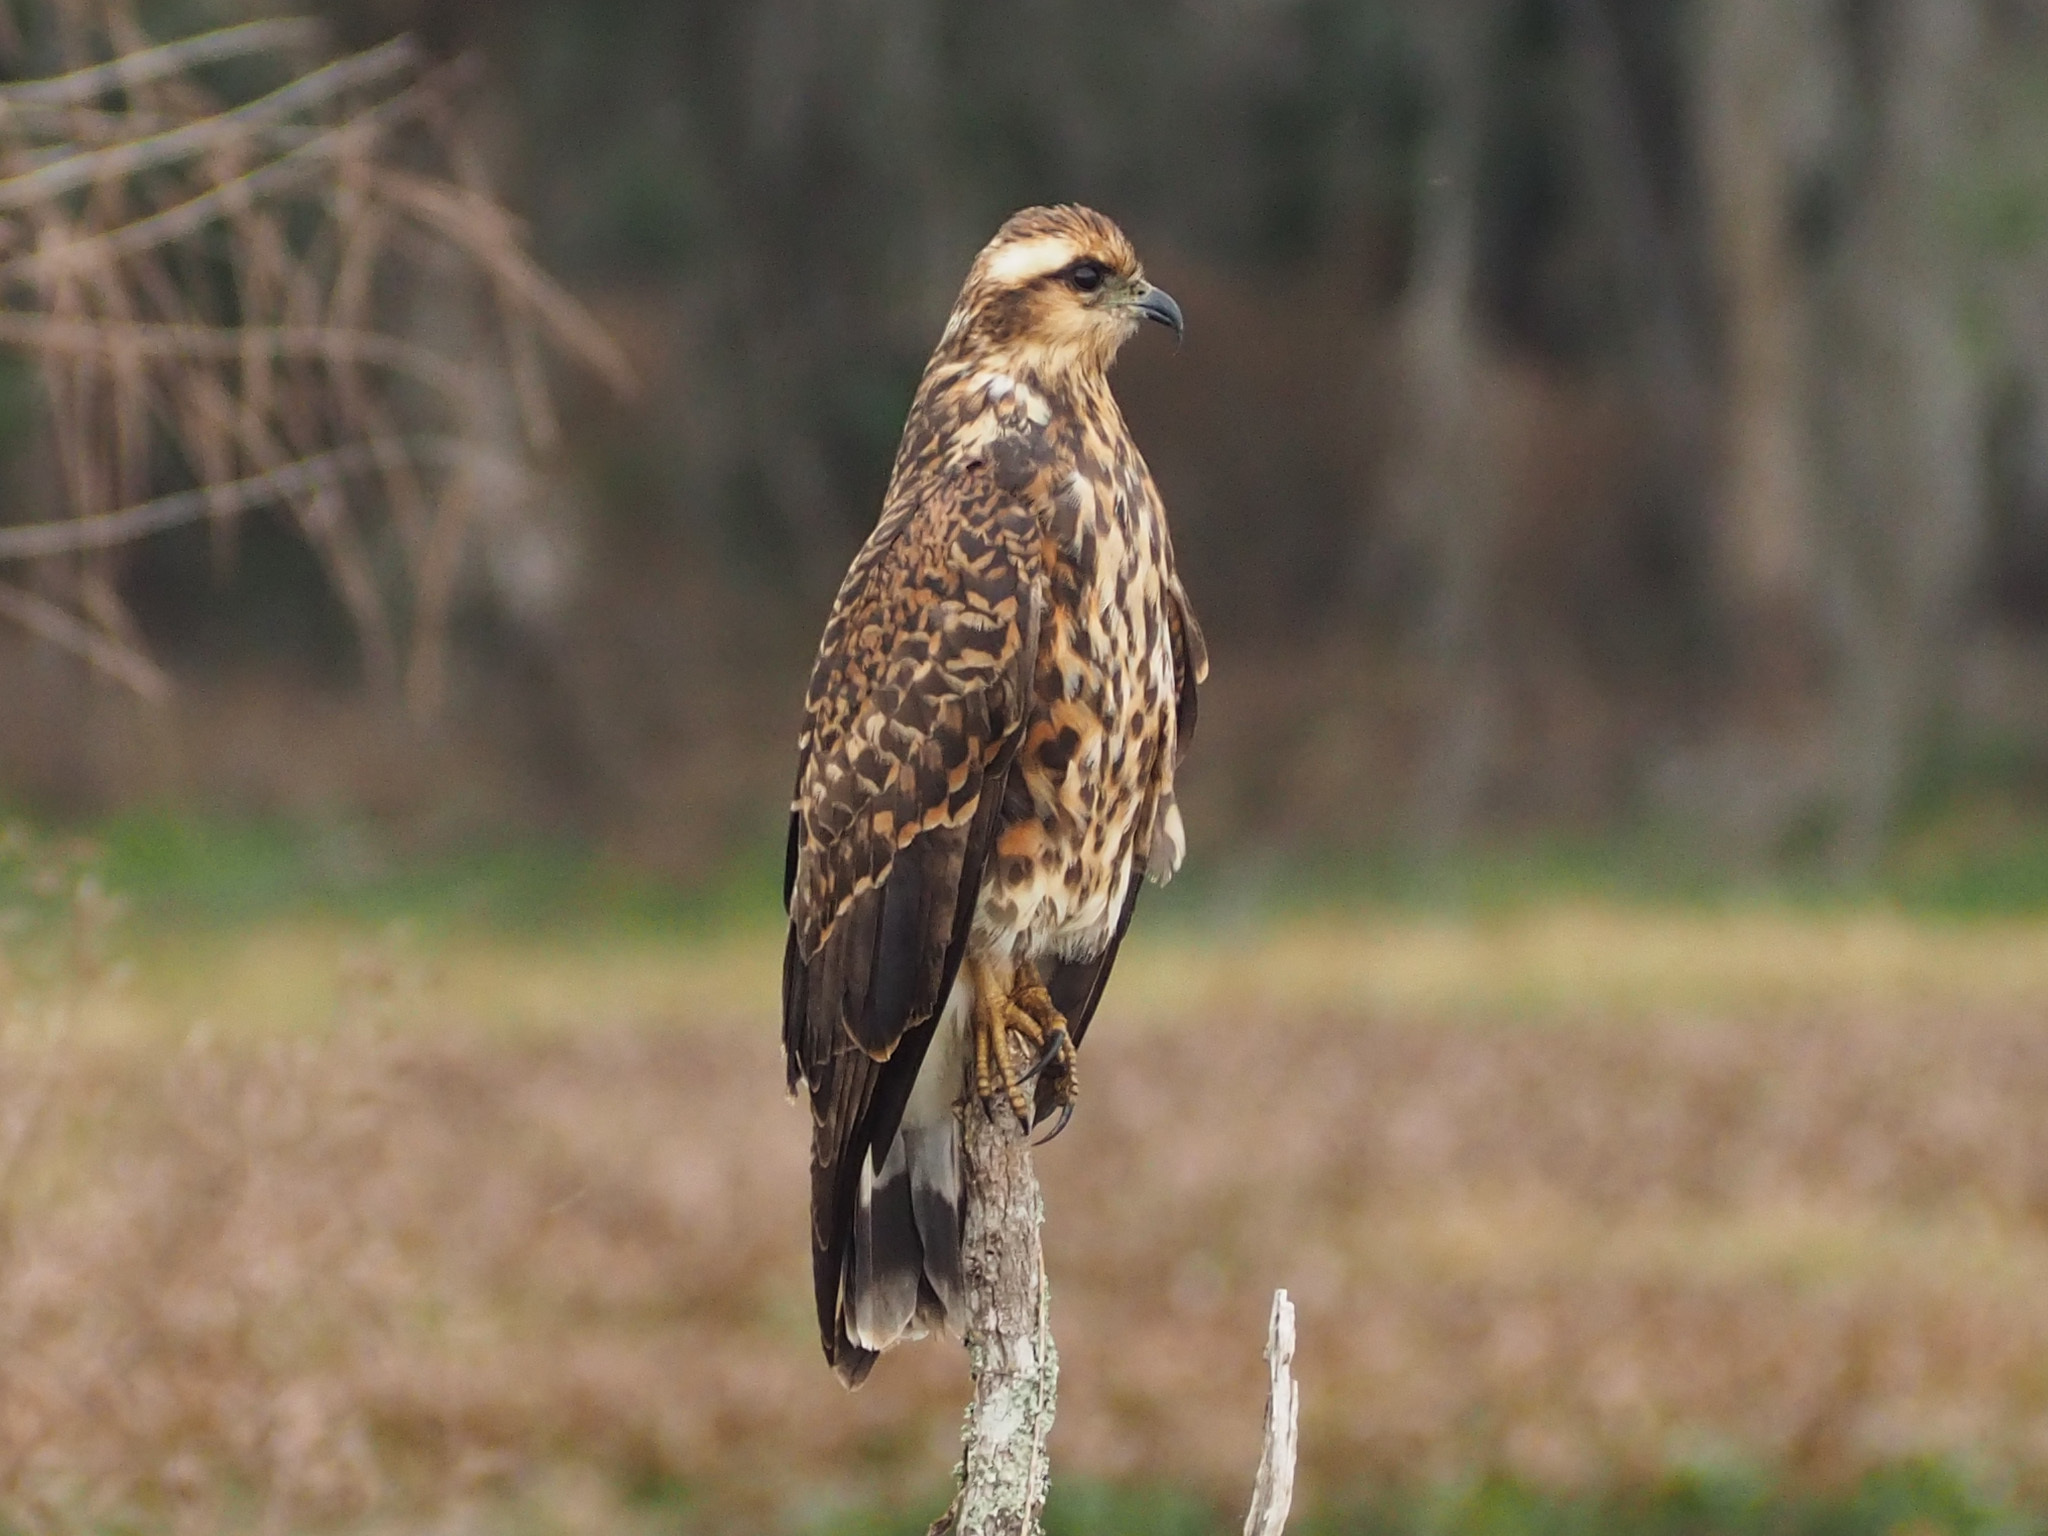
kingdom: Animalia
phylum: Chordata
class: Aves
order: Accipitriformes
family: Accipitridae
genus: Rostrhamus
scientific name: Rostrhamus sociabilis
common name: Snail kite
